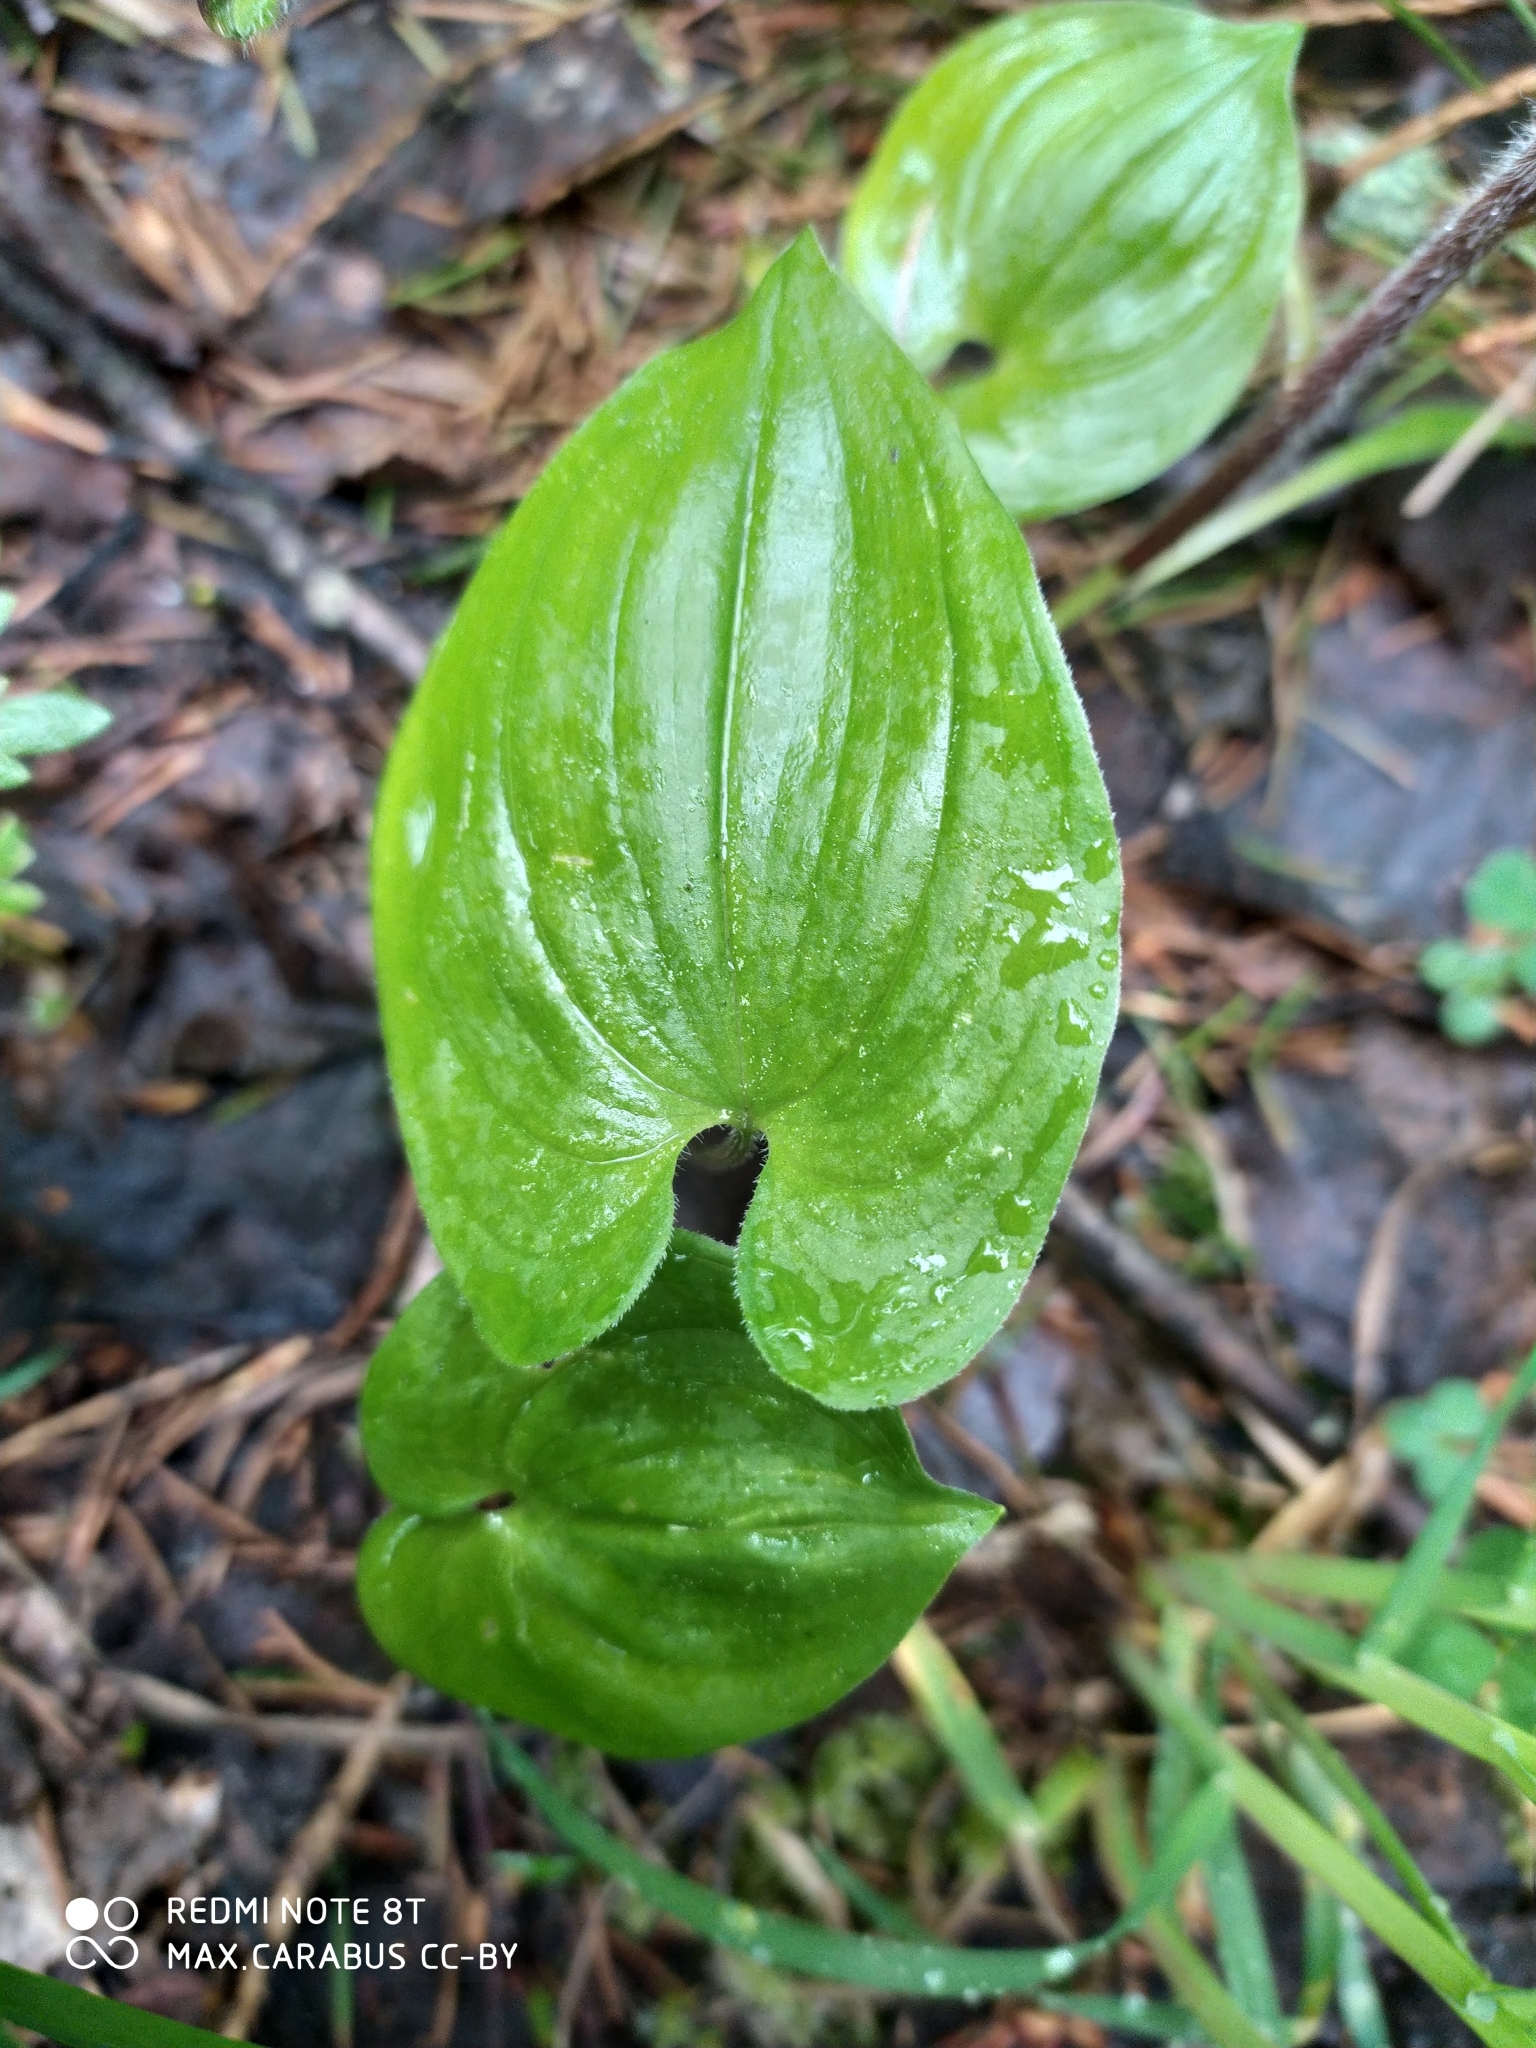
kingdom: Plantae
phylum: Tracheophyta
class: Liliopsida
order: Asparagales
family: Asparagaceae
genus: Maianthemum
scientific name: Maianthemum bifolium
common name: May lily
